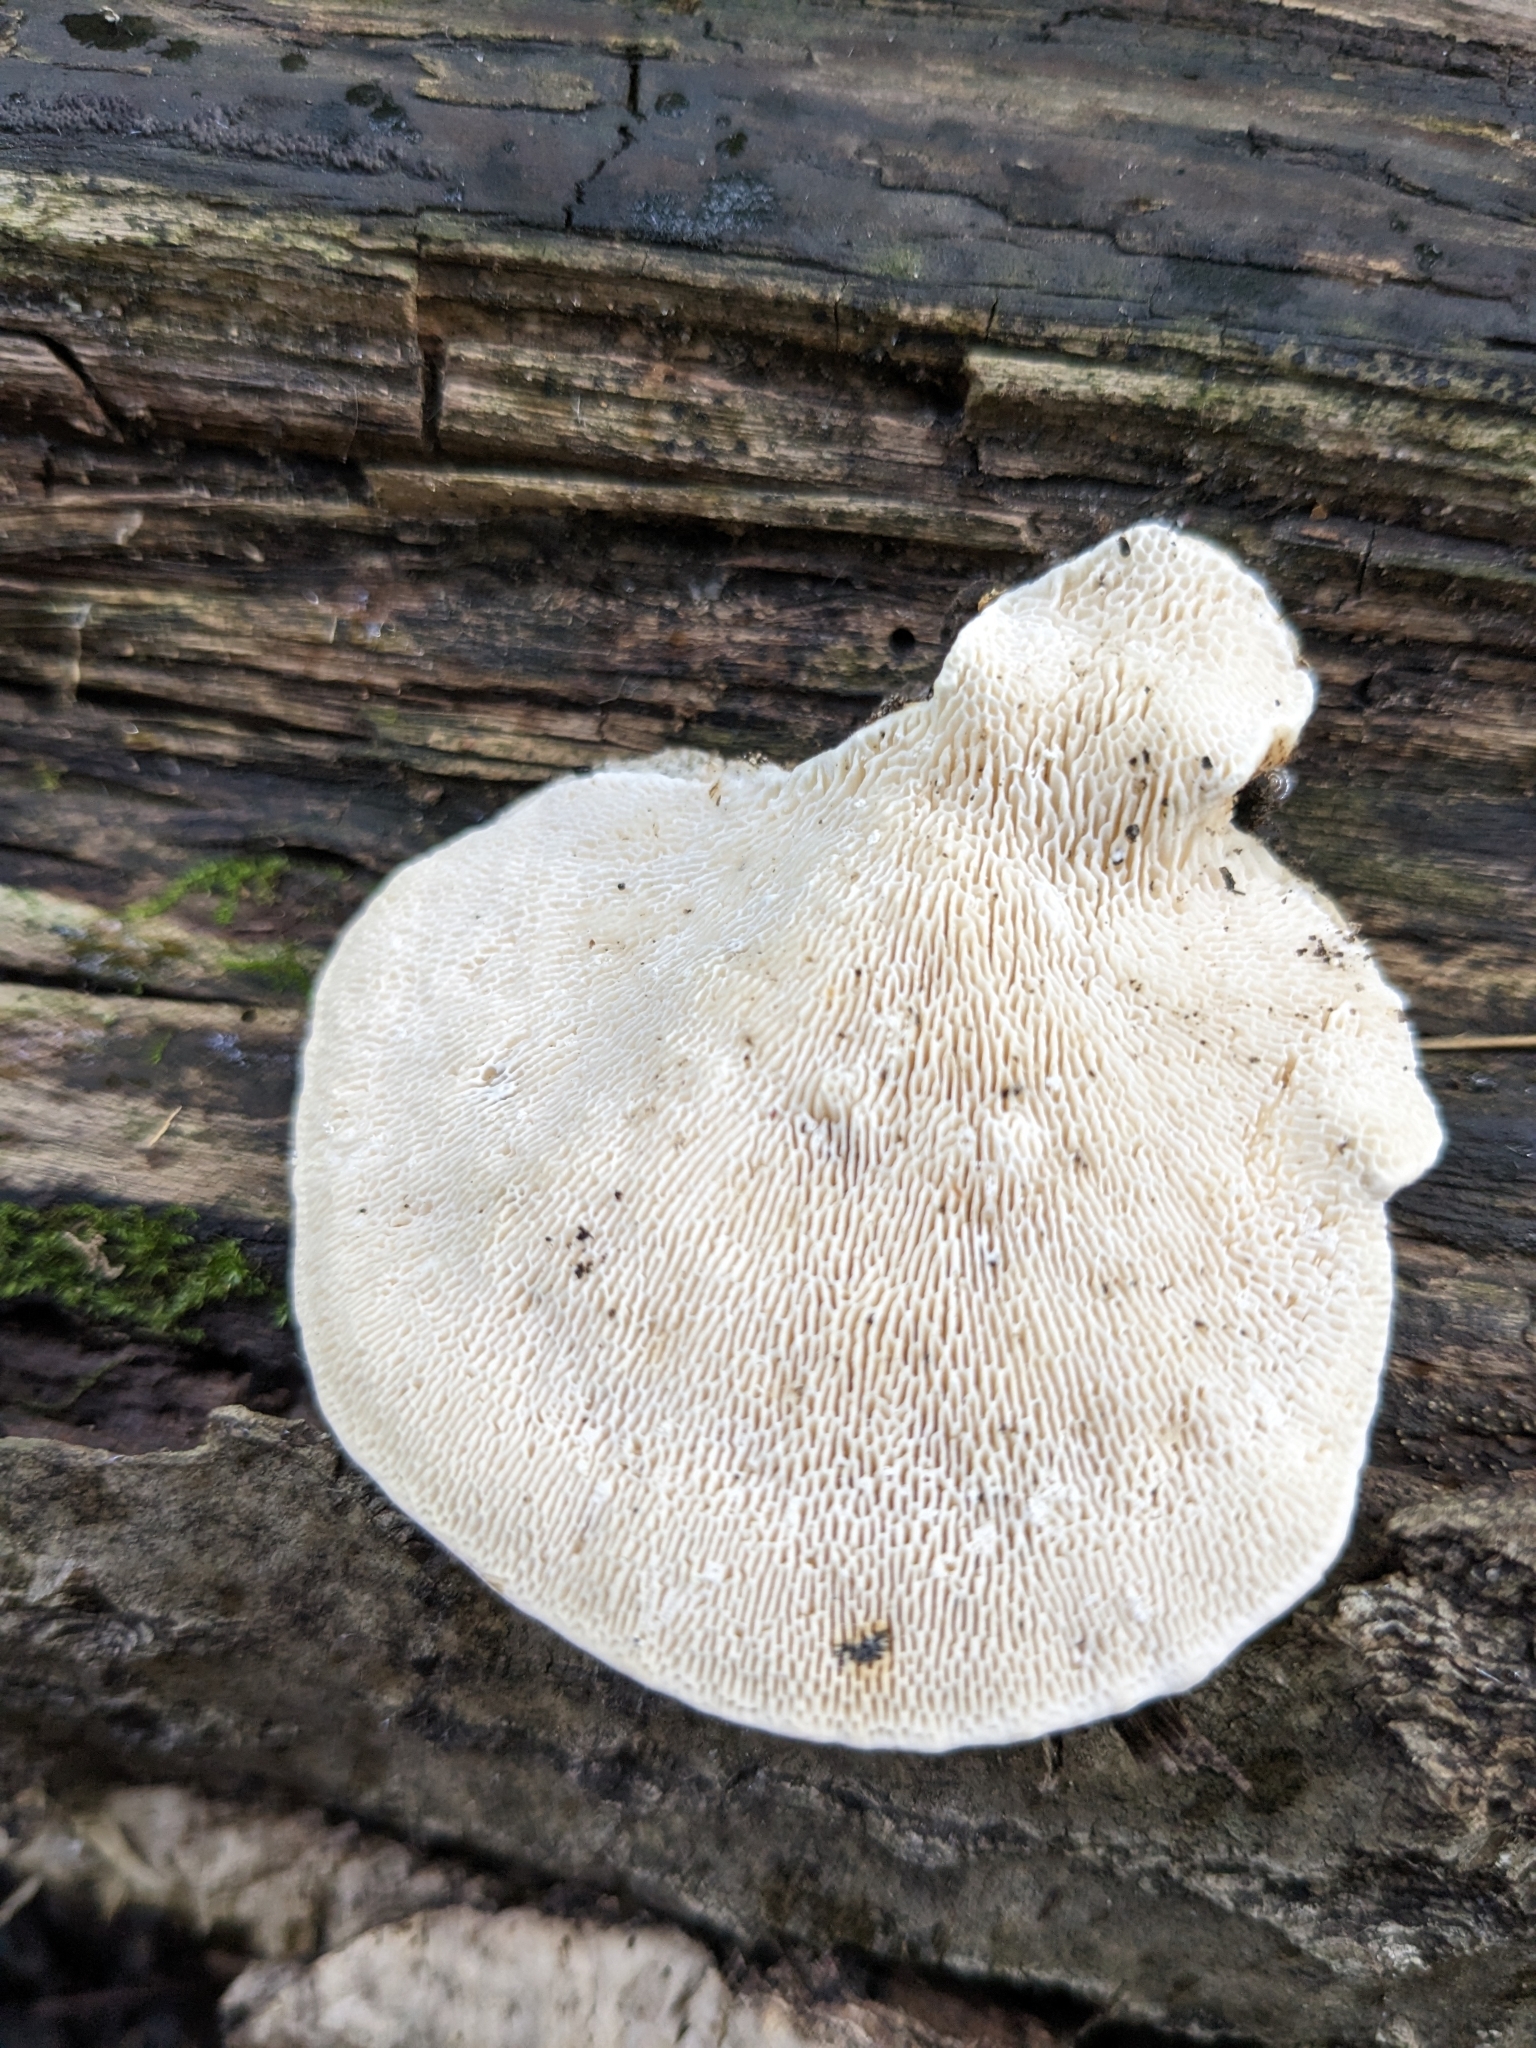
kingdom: Fungi
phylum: Basidiomycota
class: Agaricomycetes
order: Polyporales
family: Polyporaceae
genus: Trametes
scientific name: Trametes gibbosa
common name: Lumpy bracket
